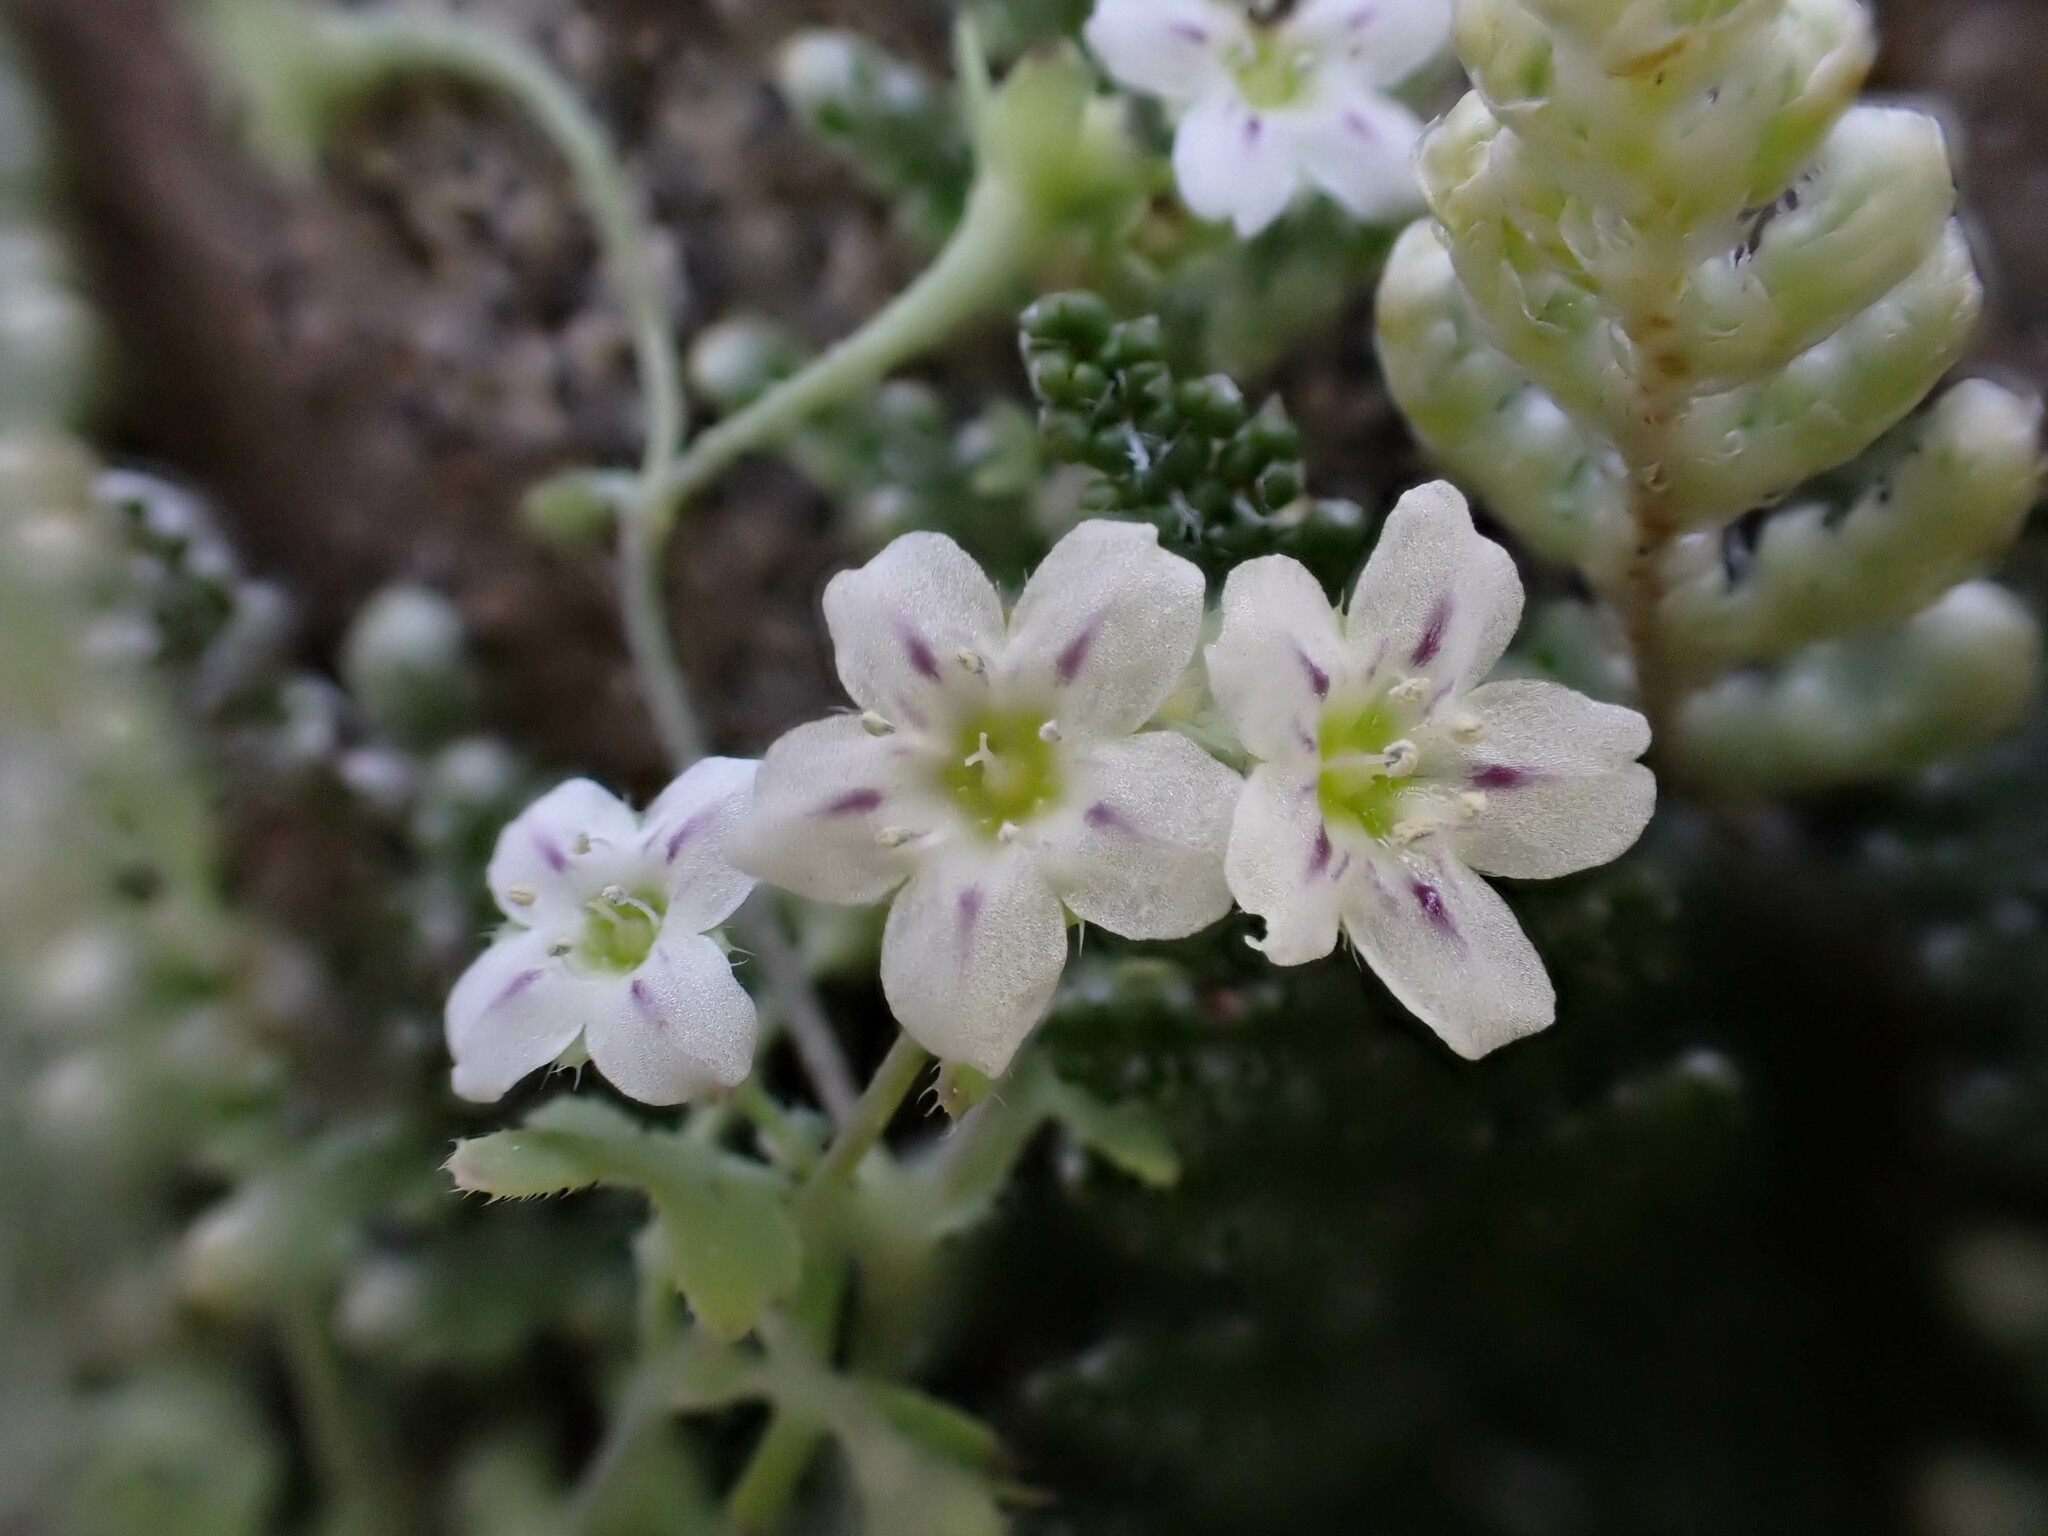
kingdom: Plantae
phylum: Tracheophyta
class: Magnoliopsida
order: Boraginales
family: Hydrophyllaceae
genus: Pholistoma
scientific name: Pholistoma membranaceum
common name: White fiesta-flower
